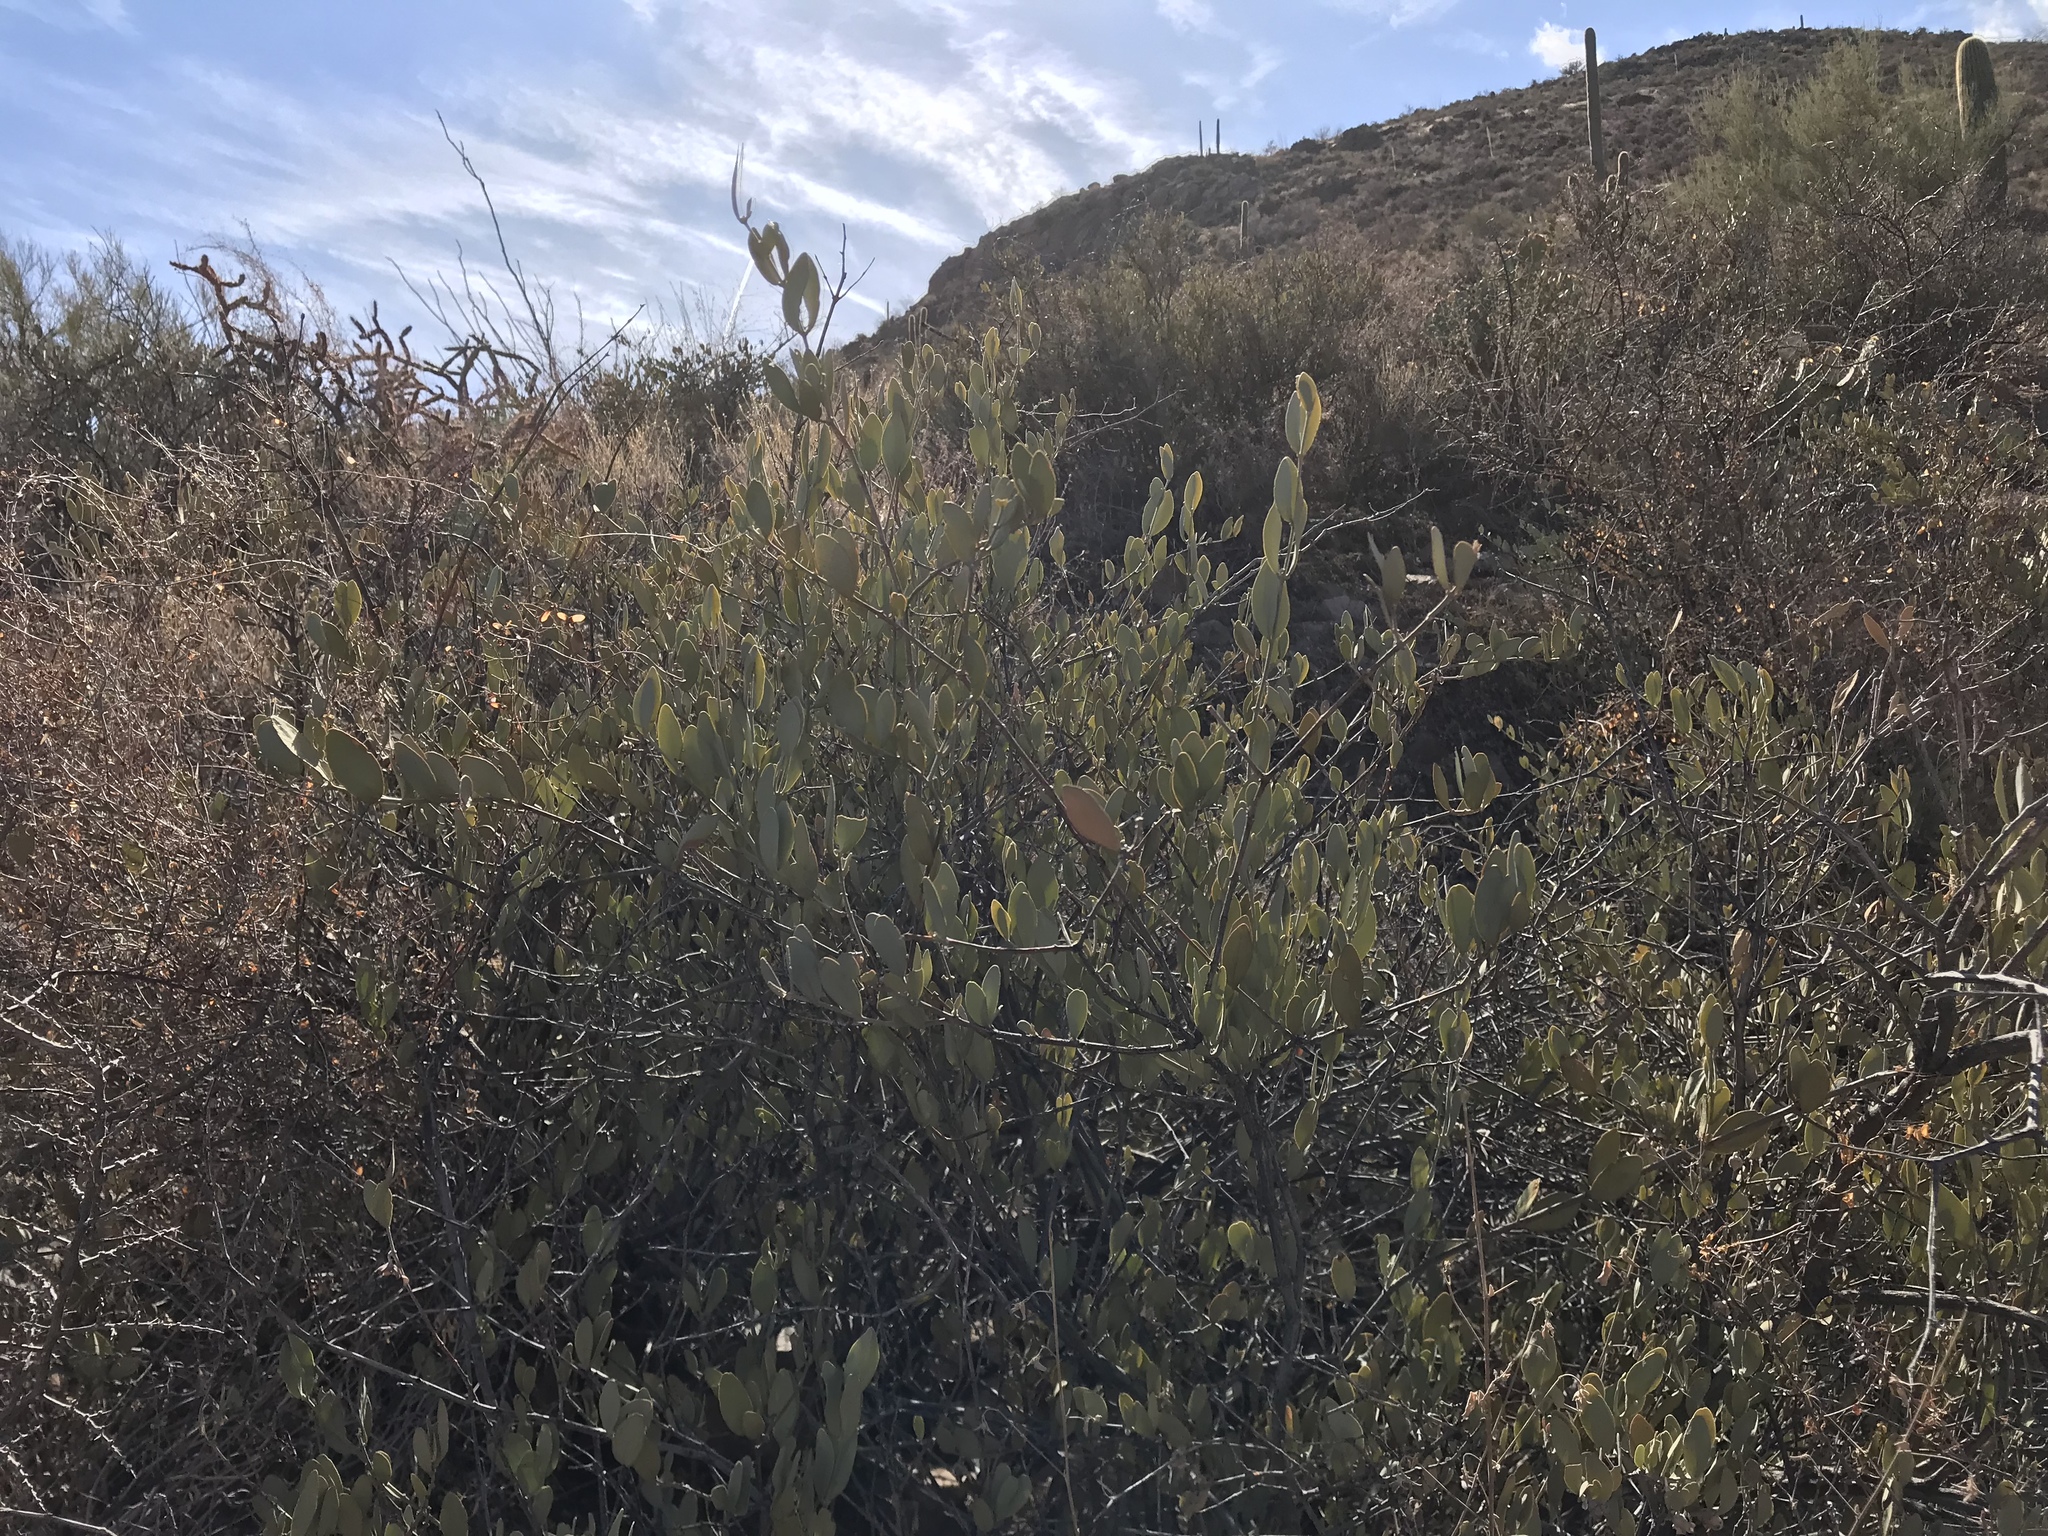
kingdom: Plantae
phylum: Tracheophyta
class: Magnoliopsida
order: Caryophyllales
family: Simmondsiaceae
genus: Simmondsia
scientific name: Simmondsia chinensis
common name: Jojoba
